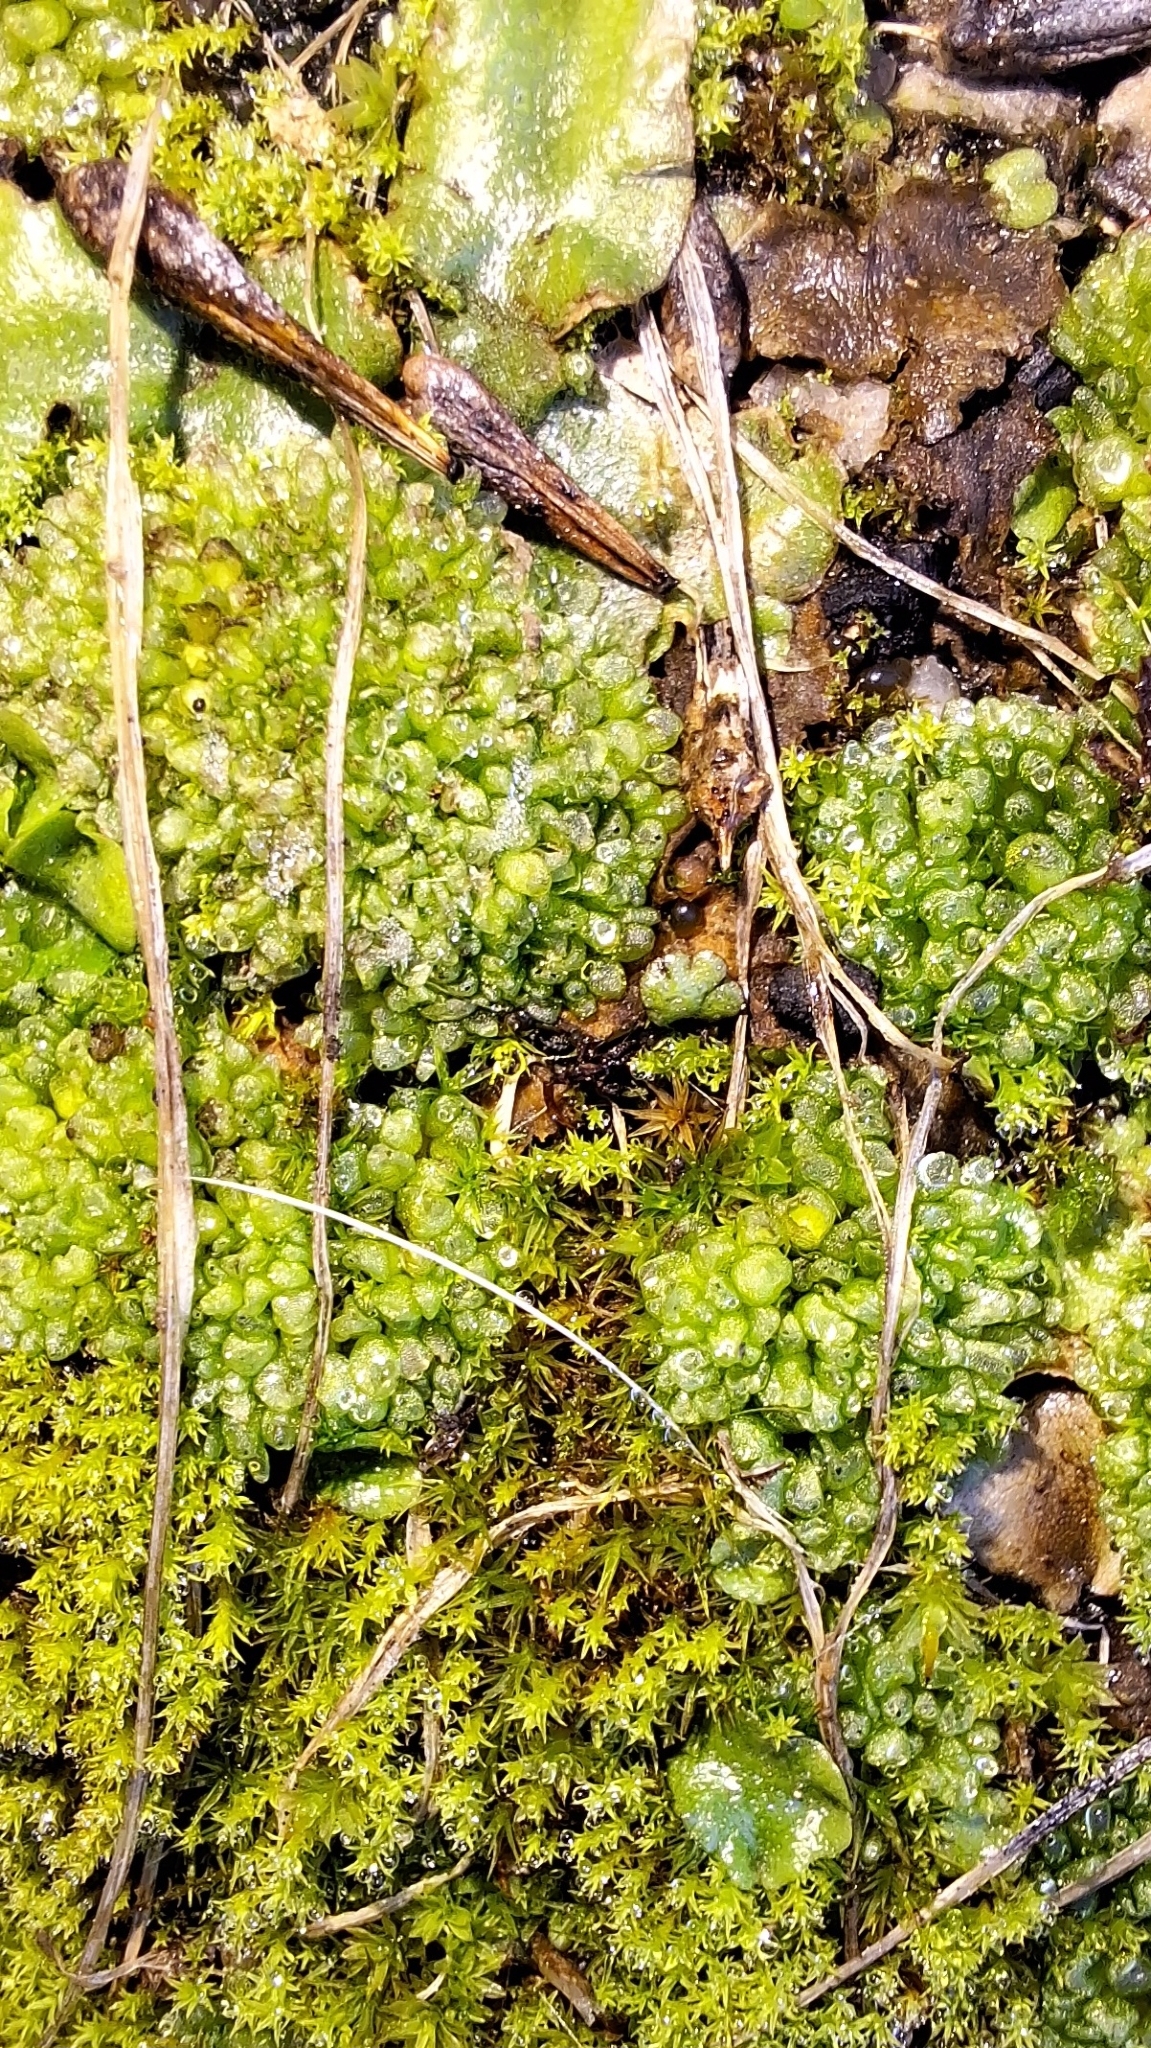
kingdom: Plantae
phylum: Marchantiophyta
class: Marchantiopsida
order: Sphaerocarpales
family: Sphaerocarpaceae
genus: Sphaerocarpos
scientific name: Sphaerocarpos texanus
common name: Texas balloonwort
